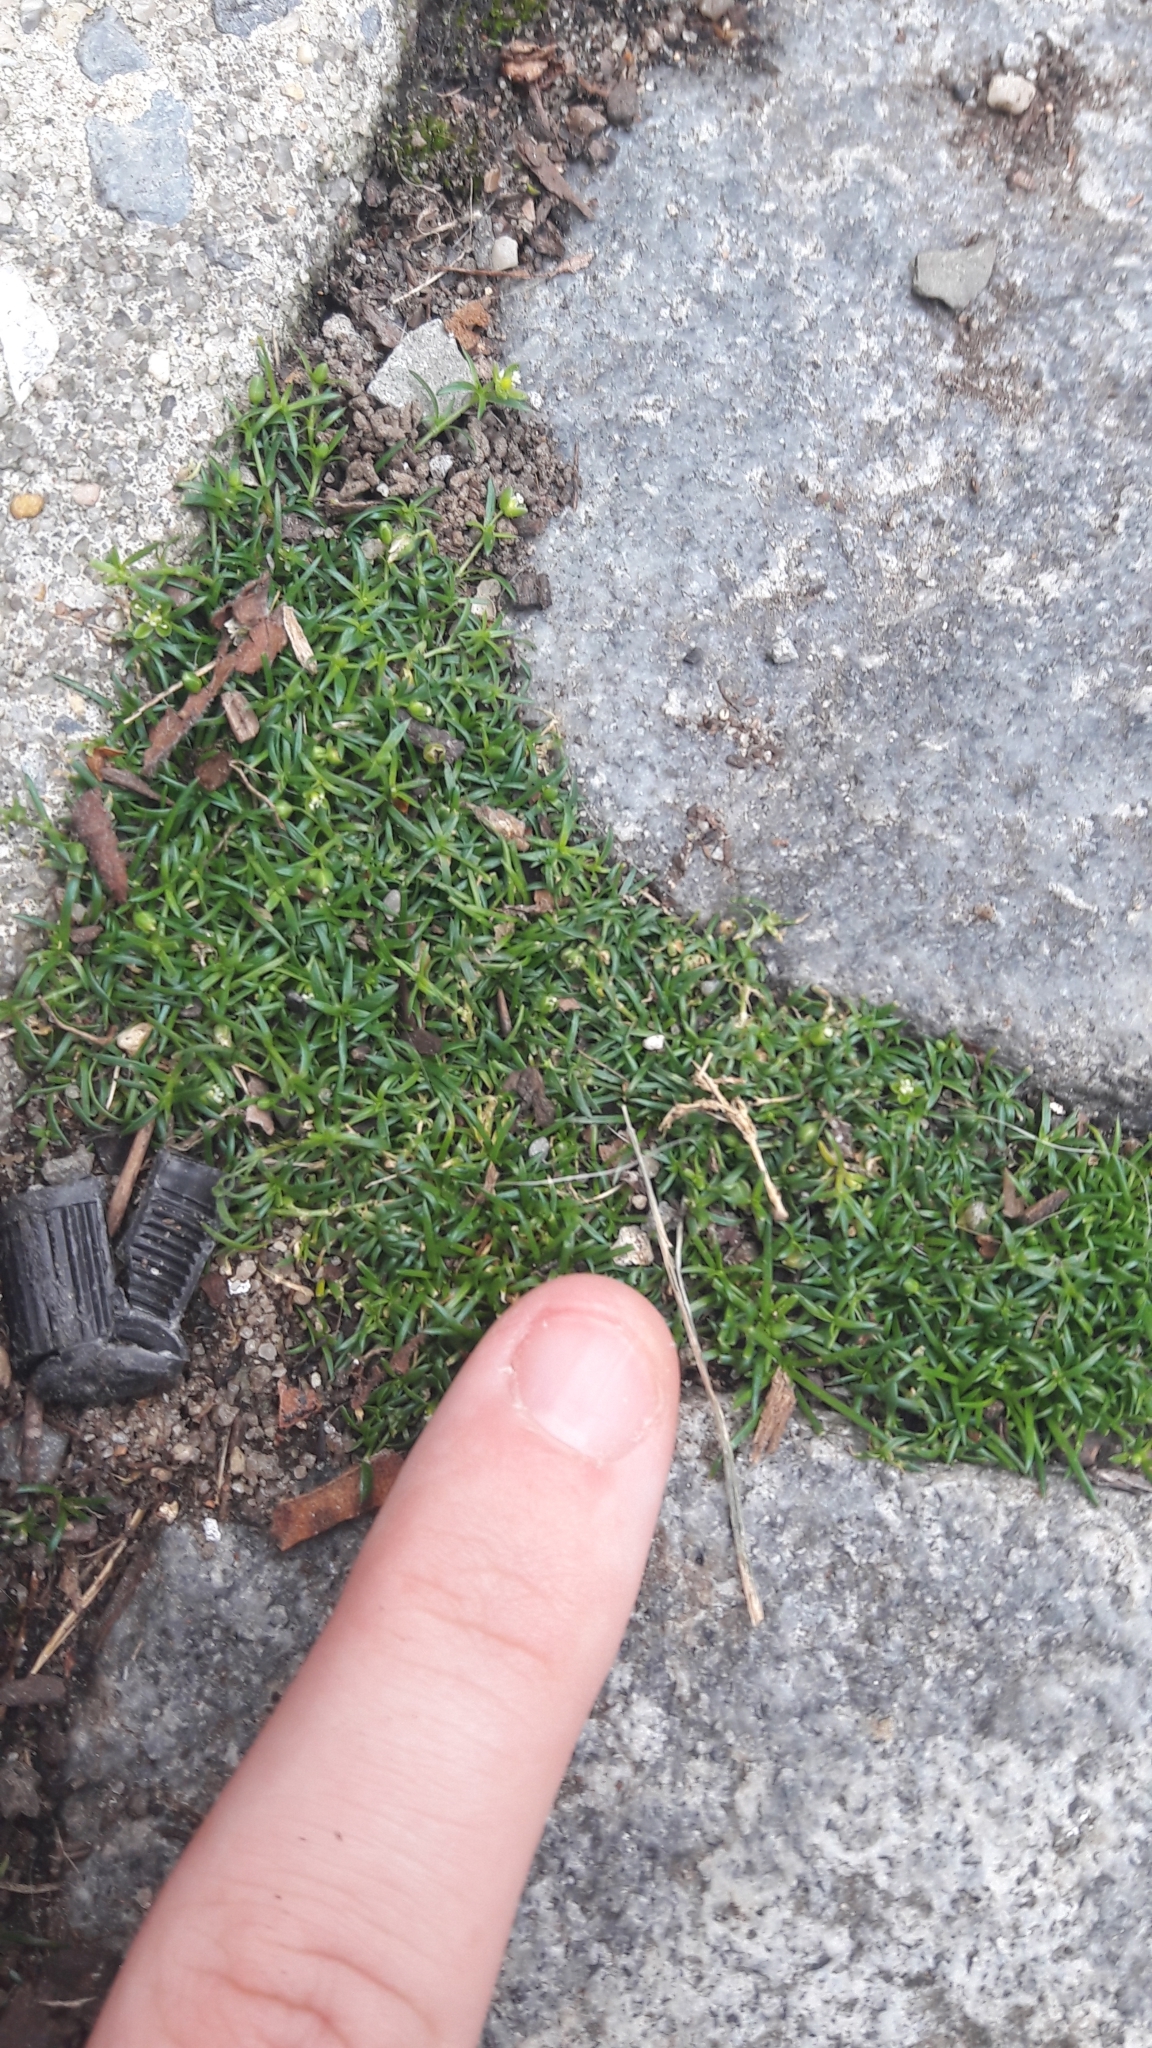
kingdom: Plantae
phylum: Tracheophyta
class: Magnoliopsida
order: Caryophyllales
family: Caryophyllaceae
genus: Sagina
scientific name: Sagina procumbens
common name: Procumbent pearlwort
